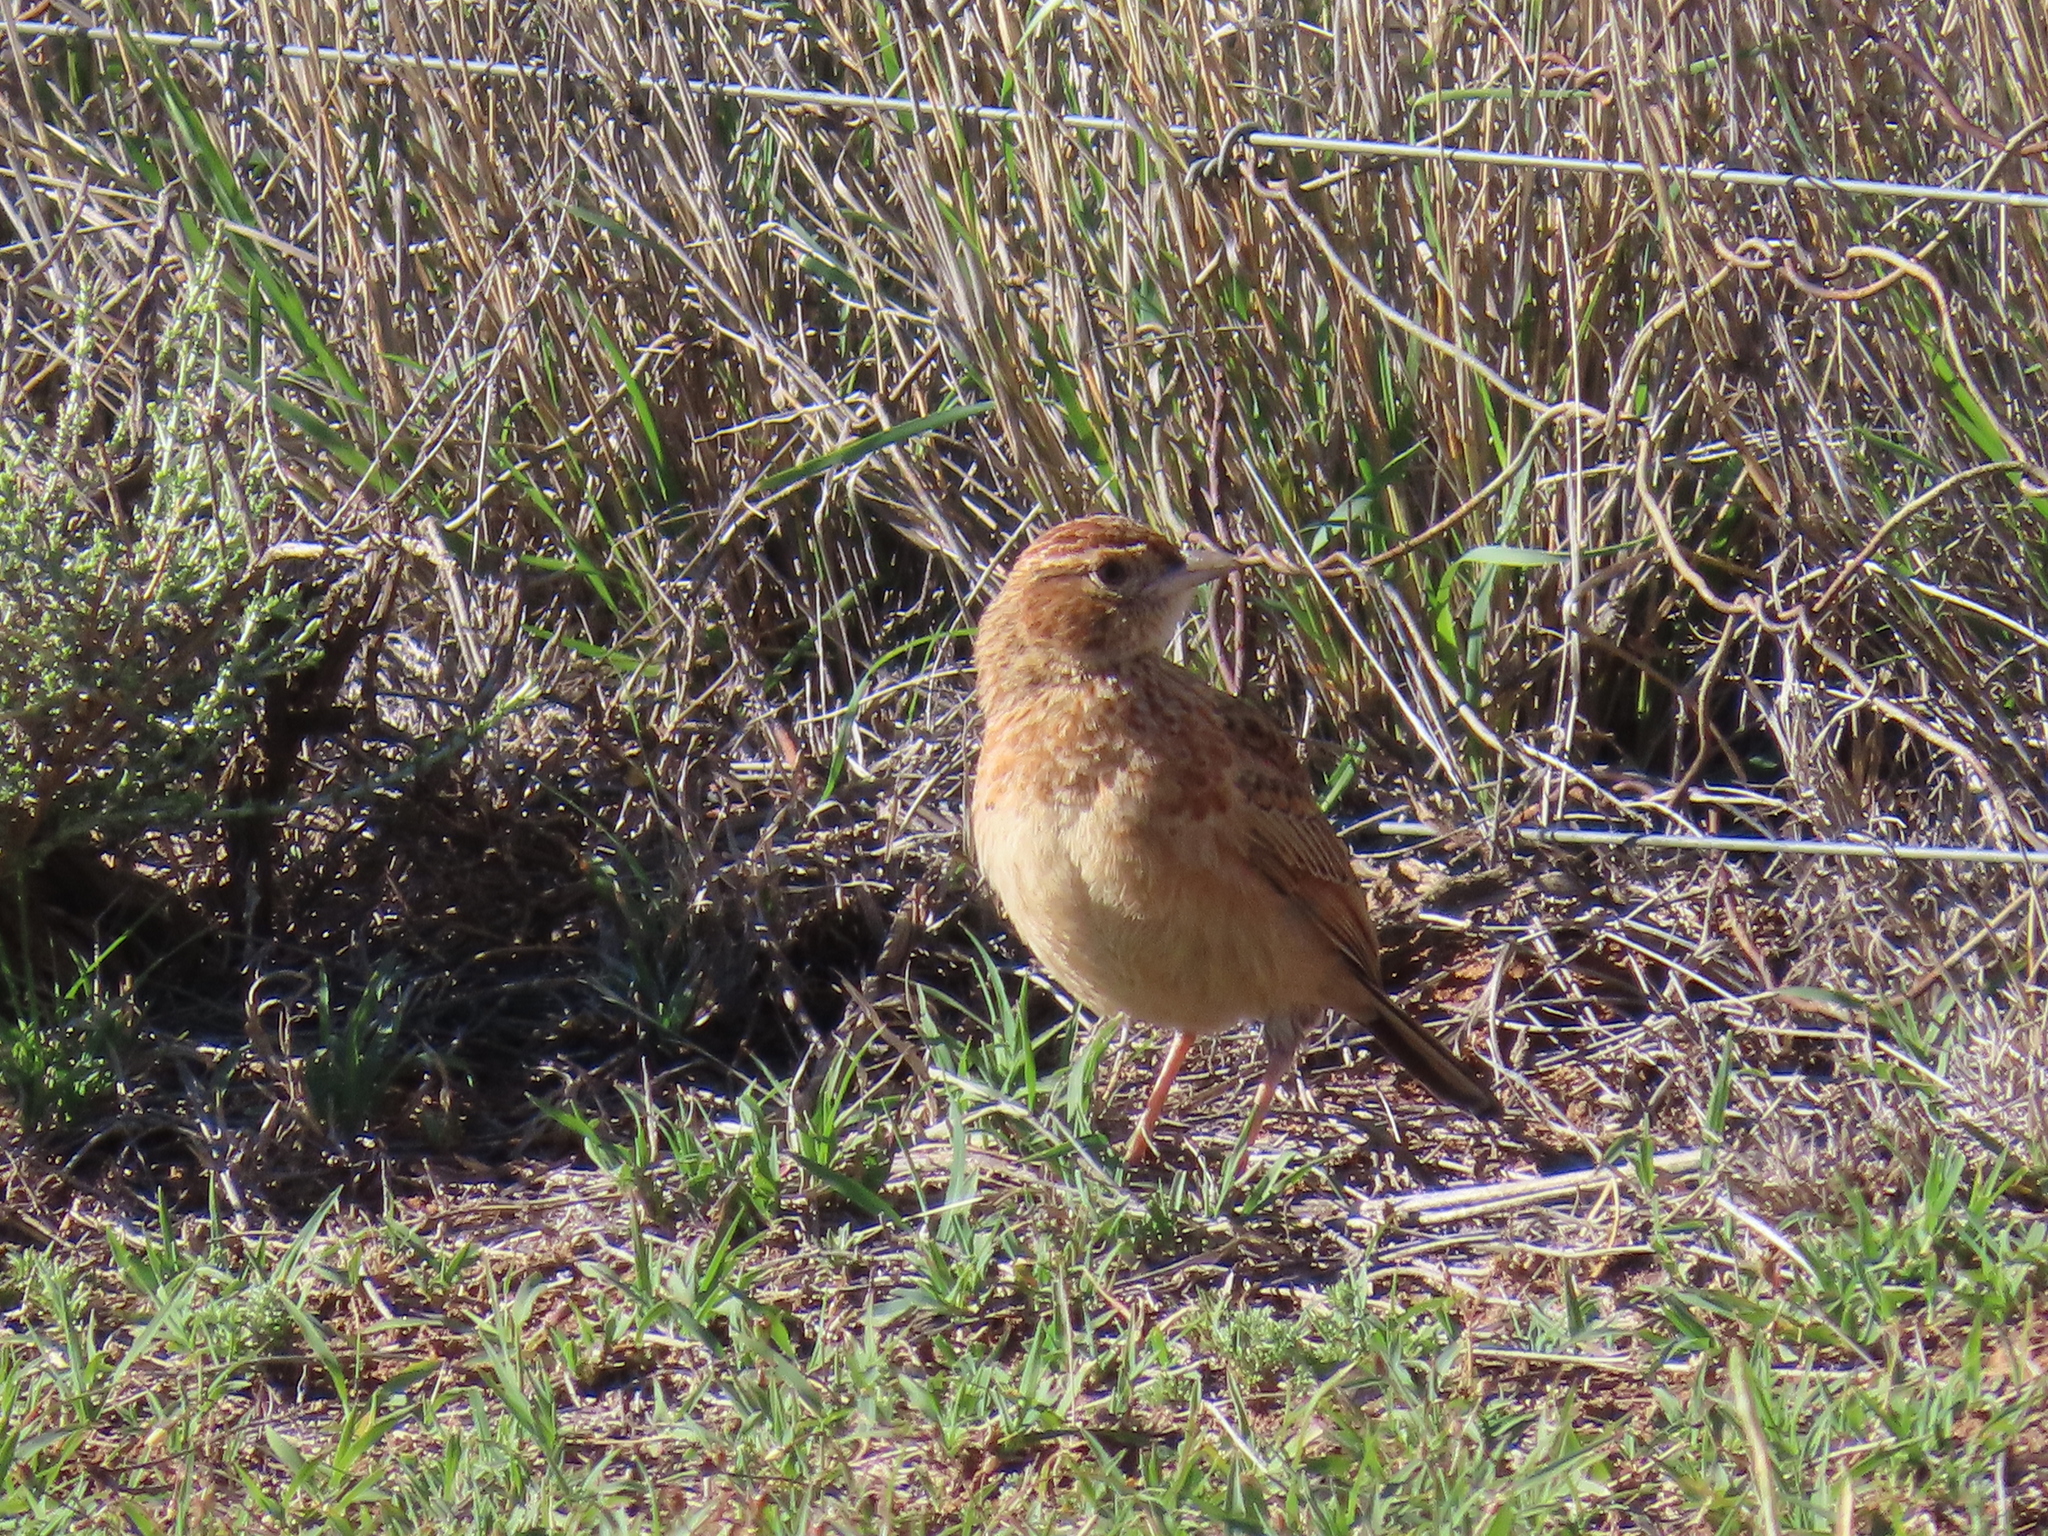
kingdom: Animalia
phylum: Chordata
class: Aves
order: Passeriformes
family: Alaudidae
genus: Mirafra
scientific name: Mirafra fasciolata
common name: Eastern clapper lark
